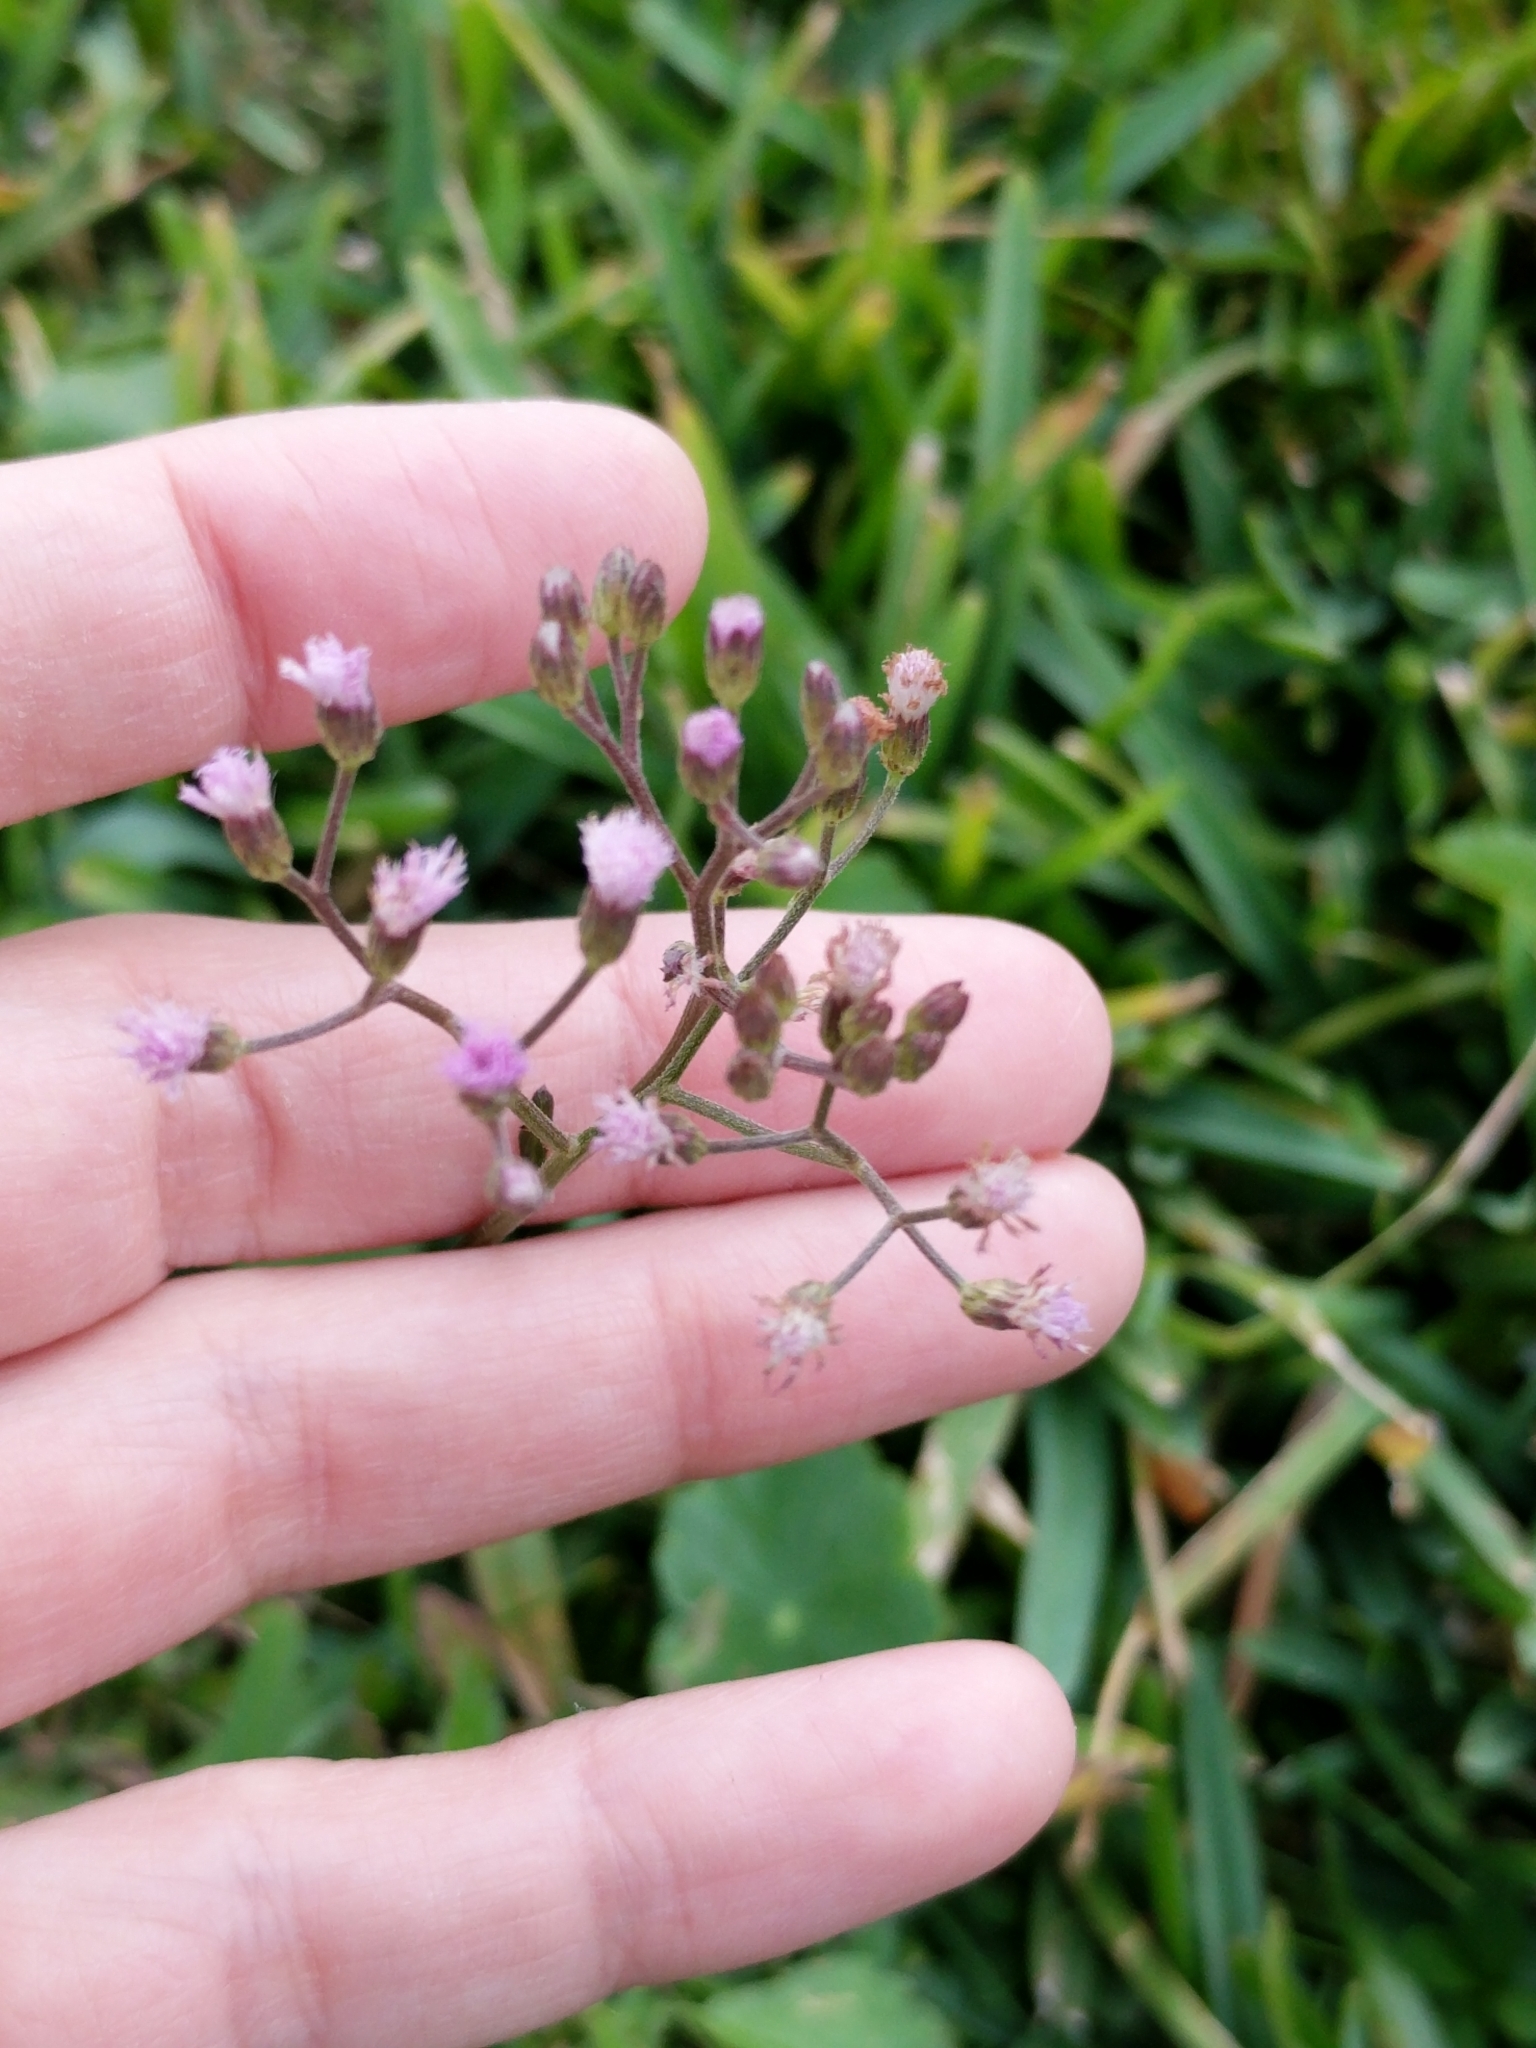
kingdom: Plantae
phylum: Tracheophyta
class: Magnoliopsida
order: Asterales
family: Asteraceae
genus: Cyanthillium
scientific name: Cyanthillium cinereum
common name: Little ironweed
